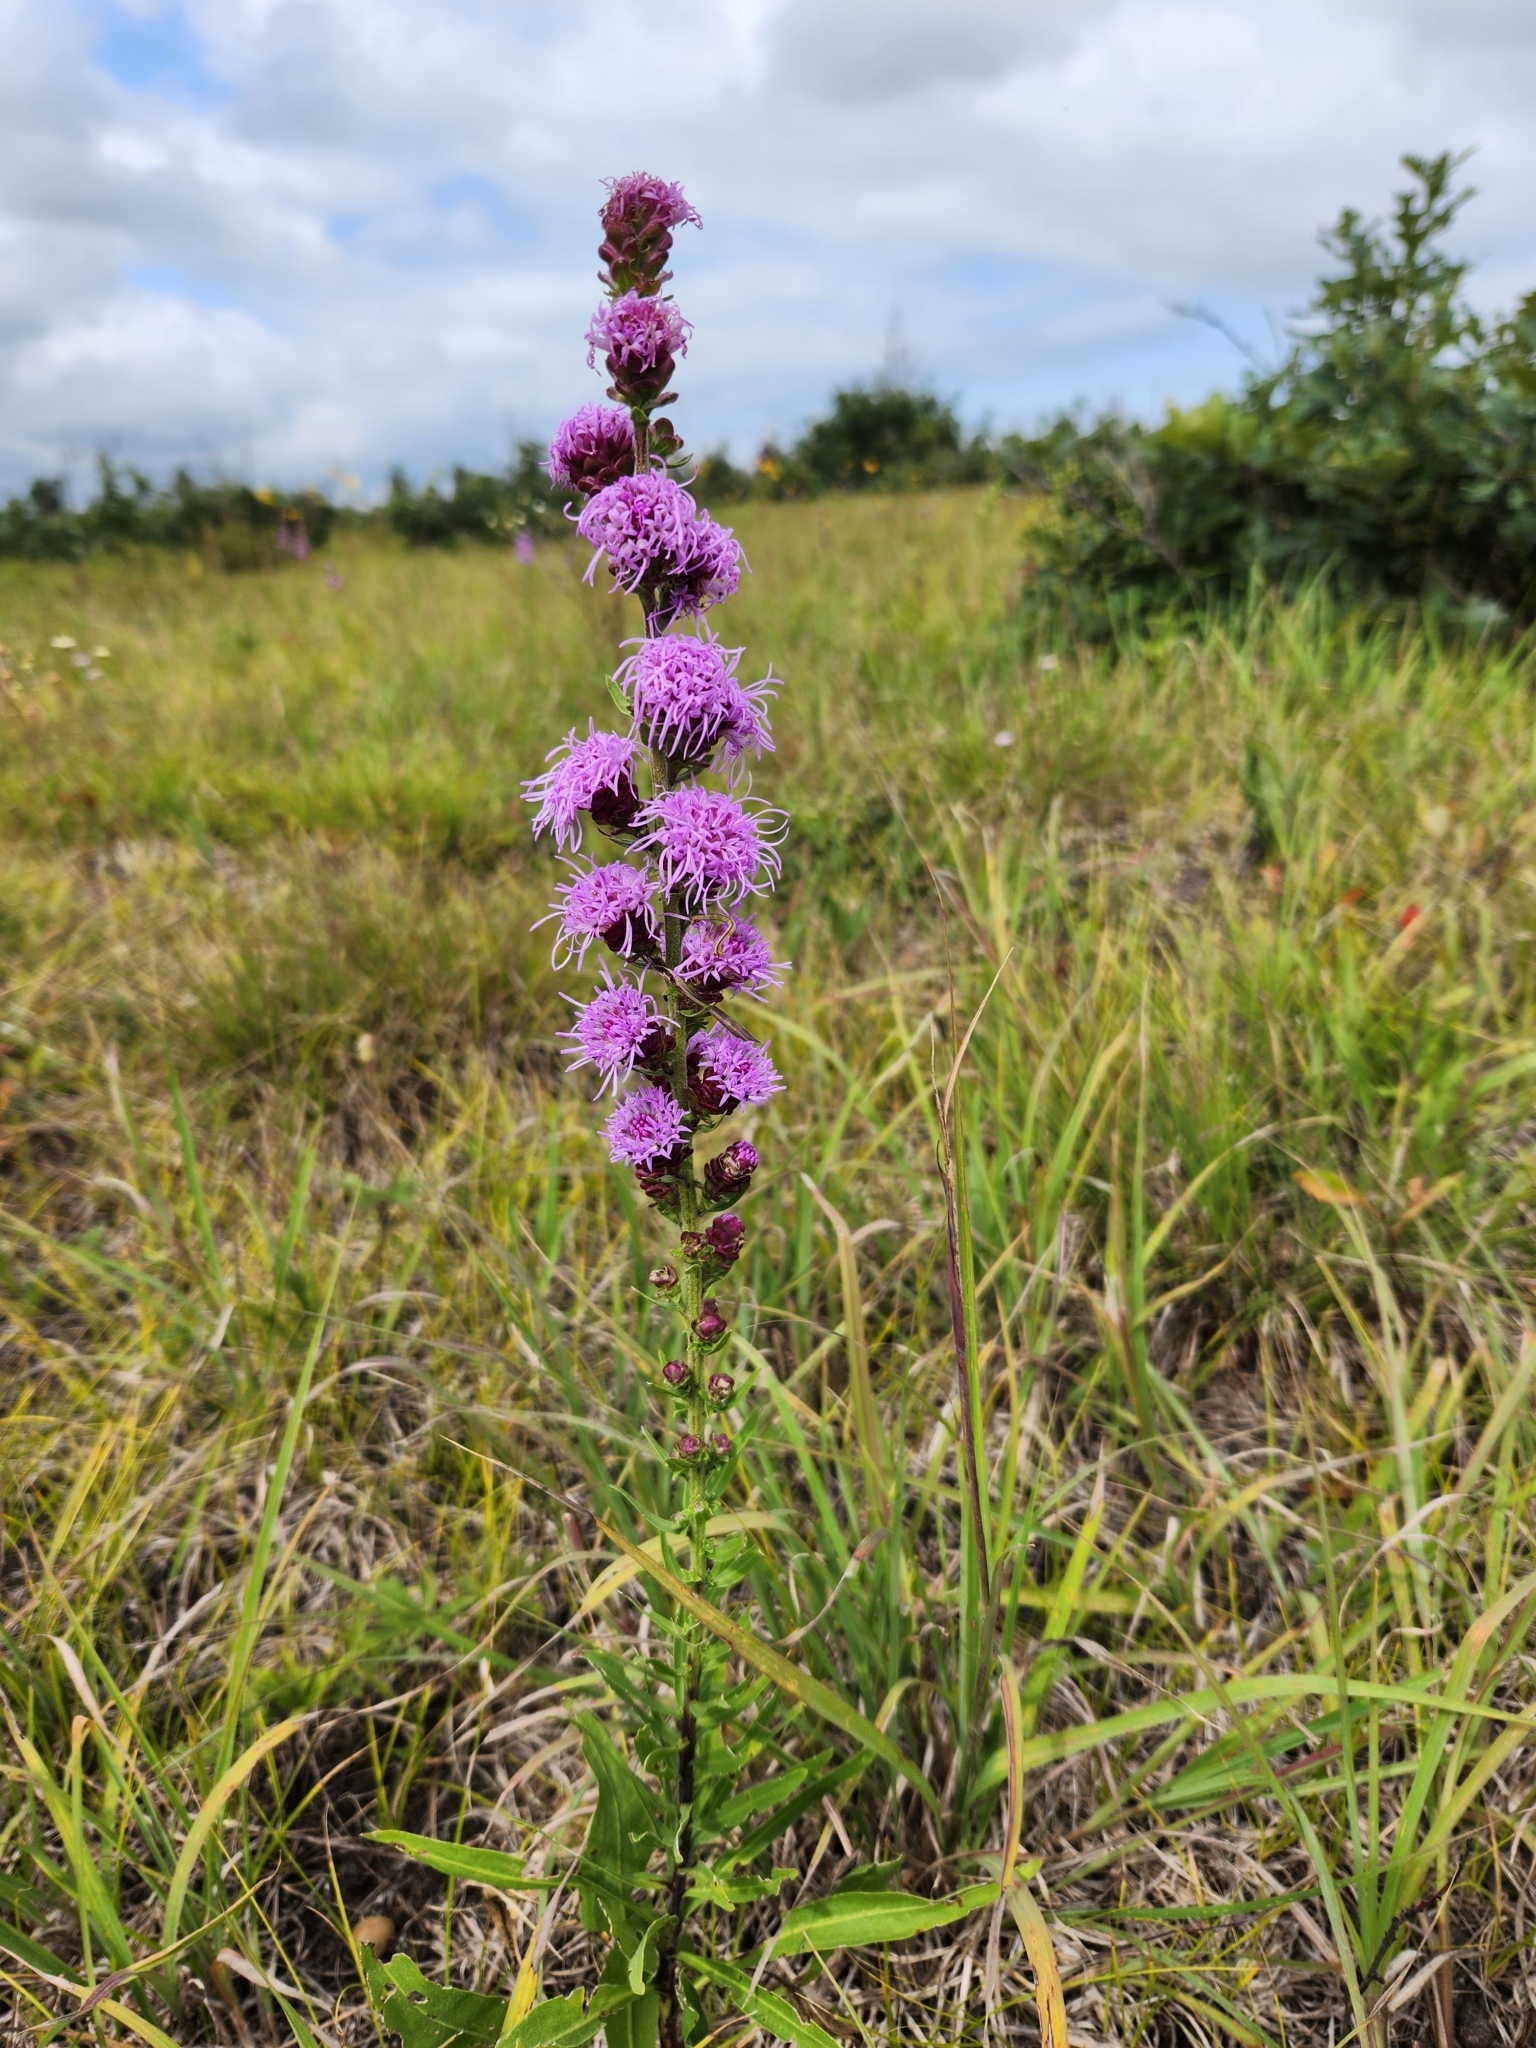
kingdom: Plantae
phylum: Tracheophyta
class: Magnoliopsida
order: Asterales
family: Asteraceae
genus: Liatris
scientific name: Liatris aspera
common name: Lacerate blazing-star
